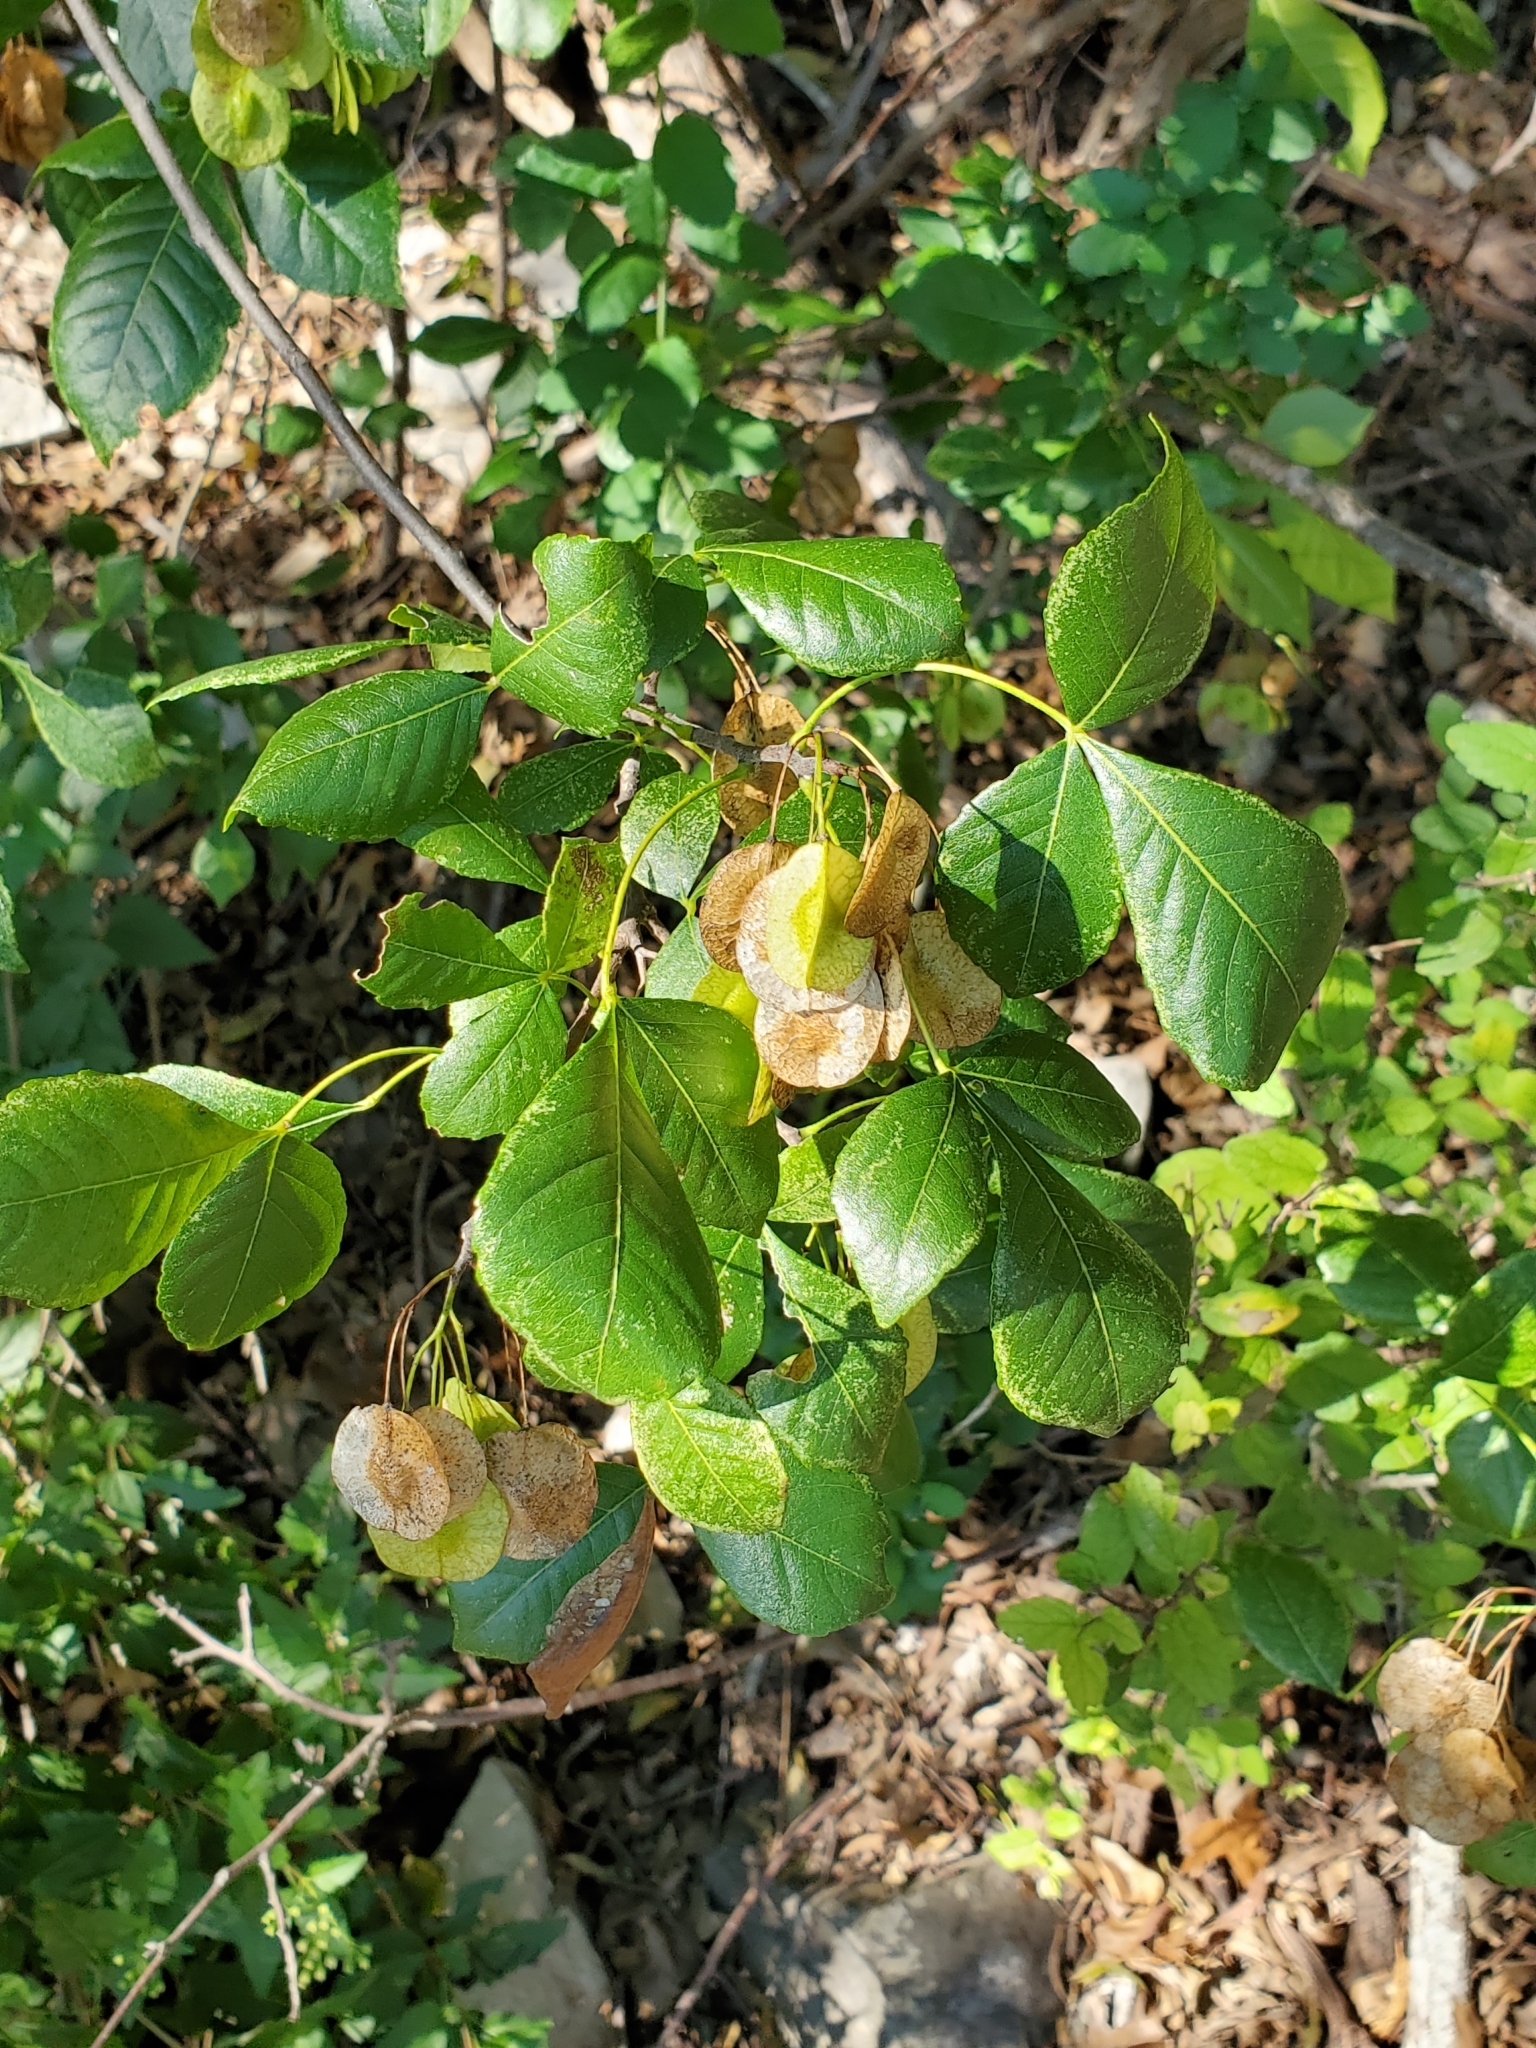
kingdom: Plantae
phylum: Tracheophyta
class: Magnoliopsida
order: Sapindales
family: Rutaceae
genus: Ptelea
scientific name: Ptelea trifoliata
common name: Common hop-tree
